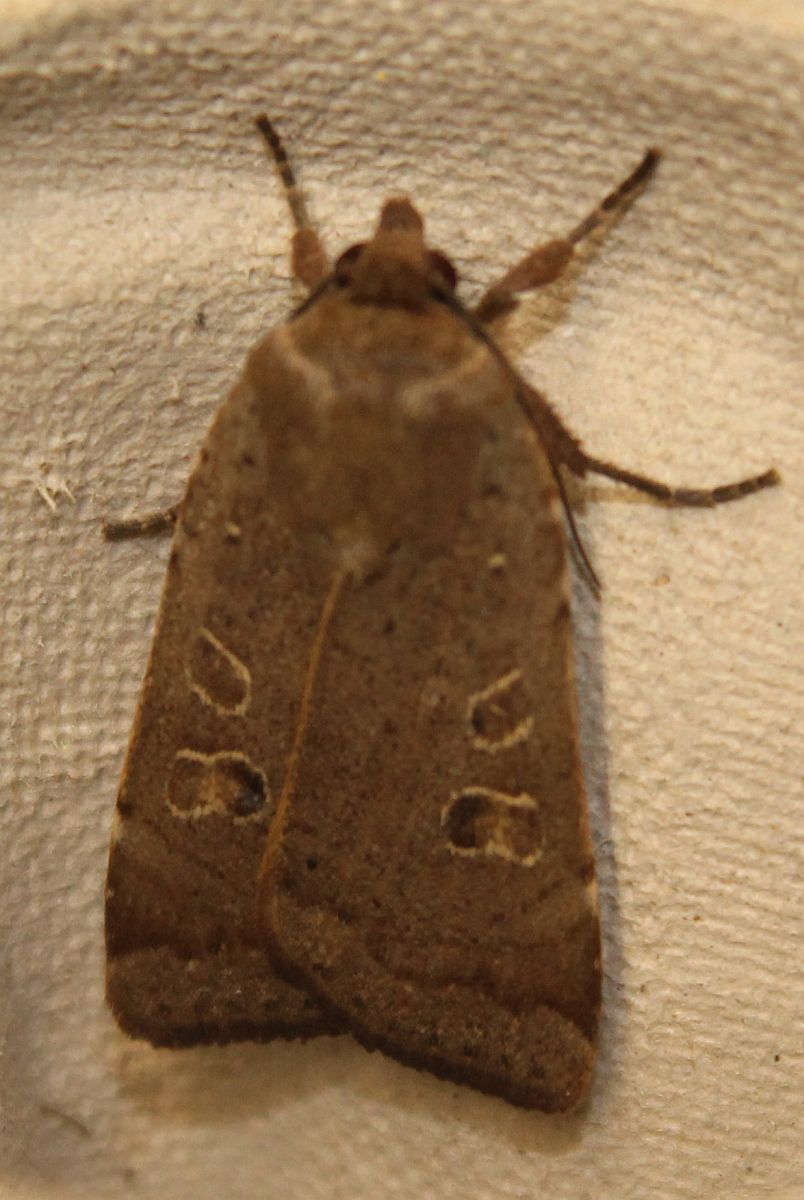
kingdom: Animalia
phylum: Arthropoda
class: Insecta
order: Lepidoptera
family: Noctuidae
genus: Noctua
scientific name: Noctua comes
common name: Lesser yellow underwing
